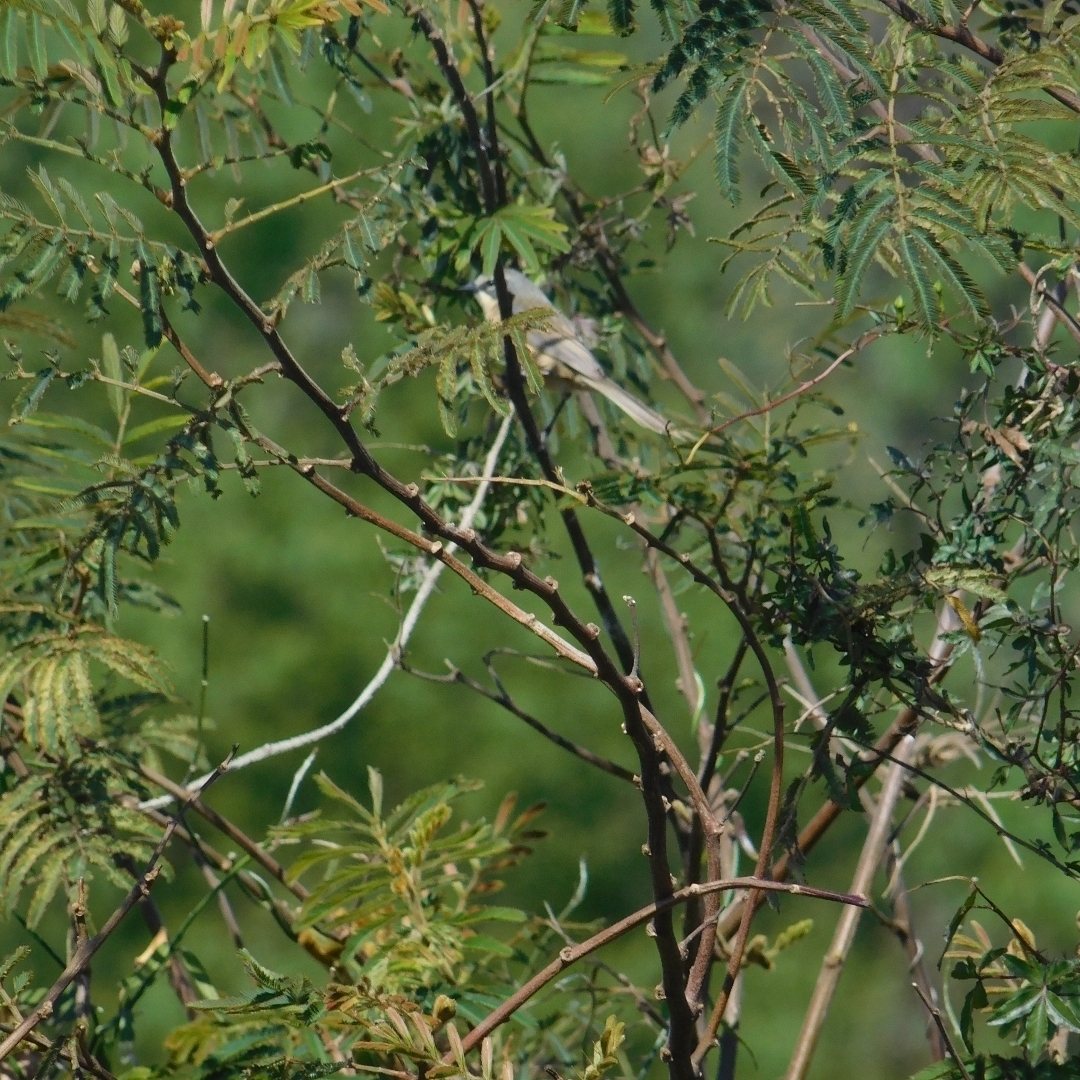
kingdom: Animalia
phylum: Chordata
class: Aves
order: Passeriformes
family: Thraupidae
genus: Donacospiza
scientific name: Donacospiza albifrons
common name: Long-tailed reed finch
